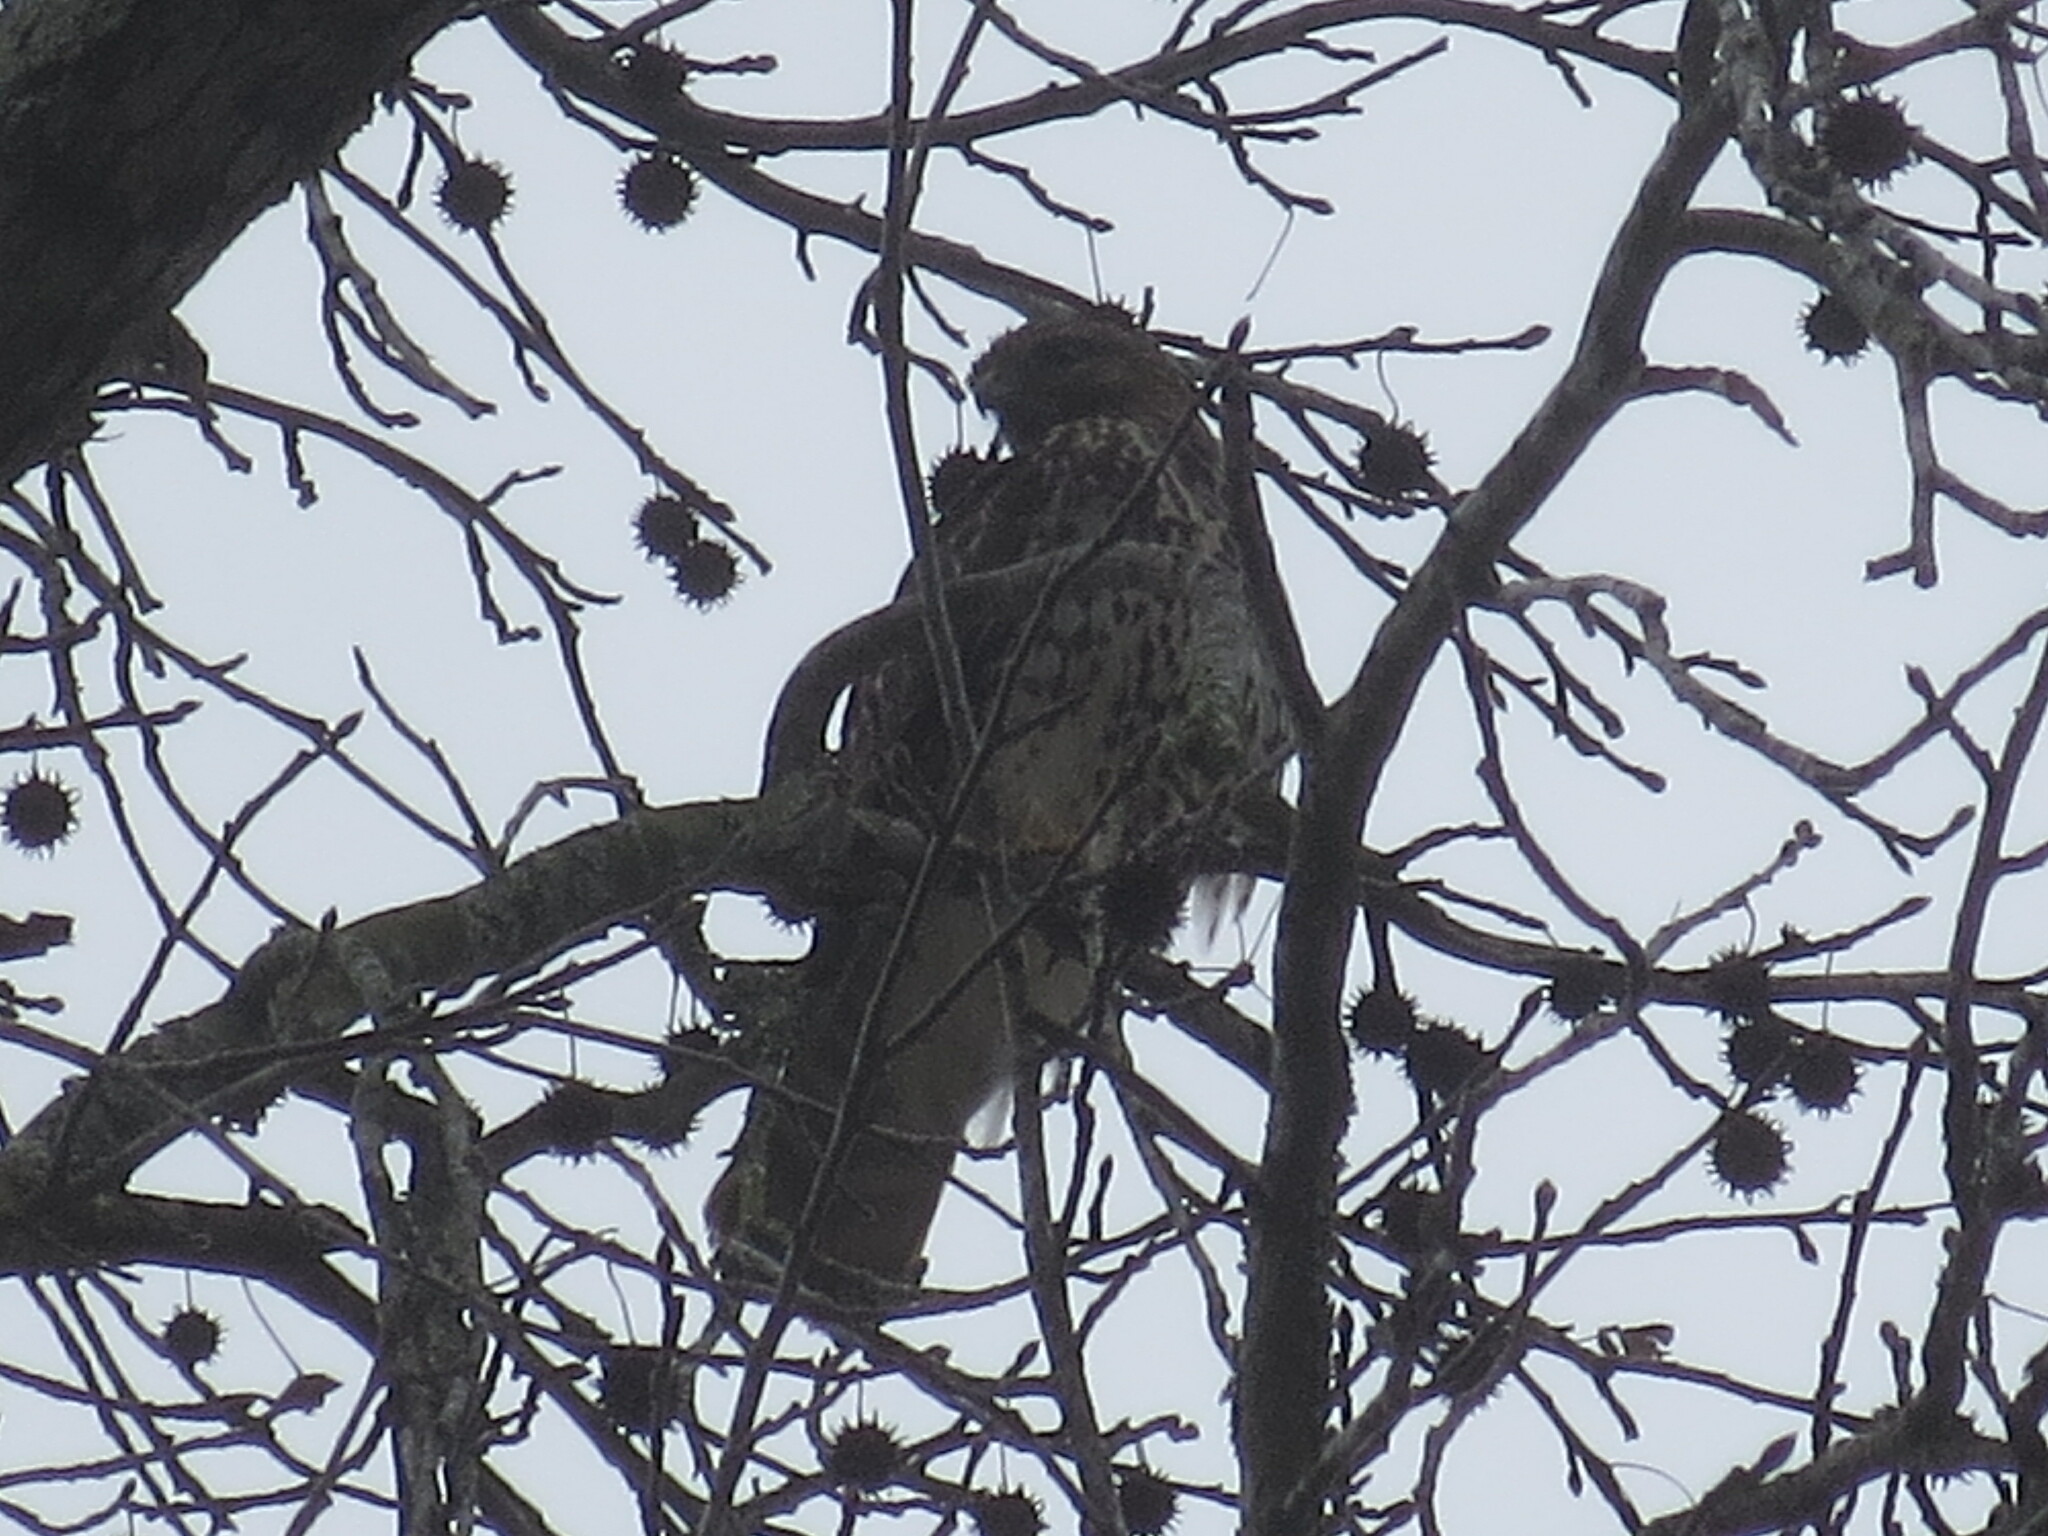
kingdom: Animalia
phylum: Chordata
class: Aves
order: Accipitriformes
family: Accipitridae
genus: Buteo
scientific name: Buteo lineatus
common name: Red-shouldered hawk
